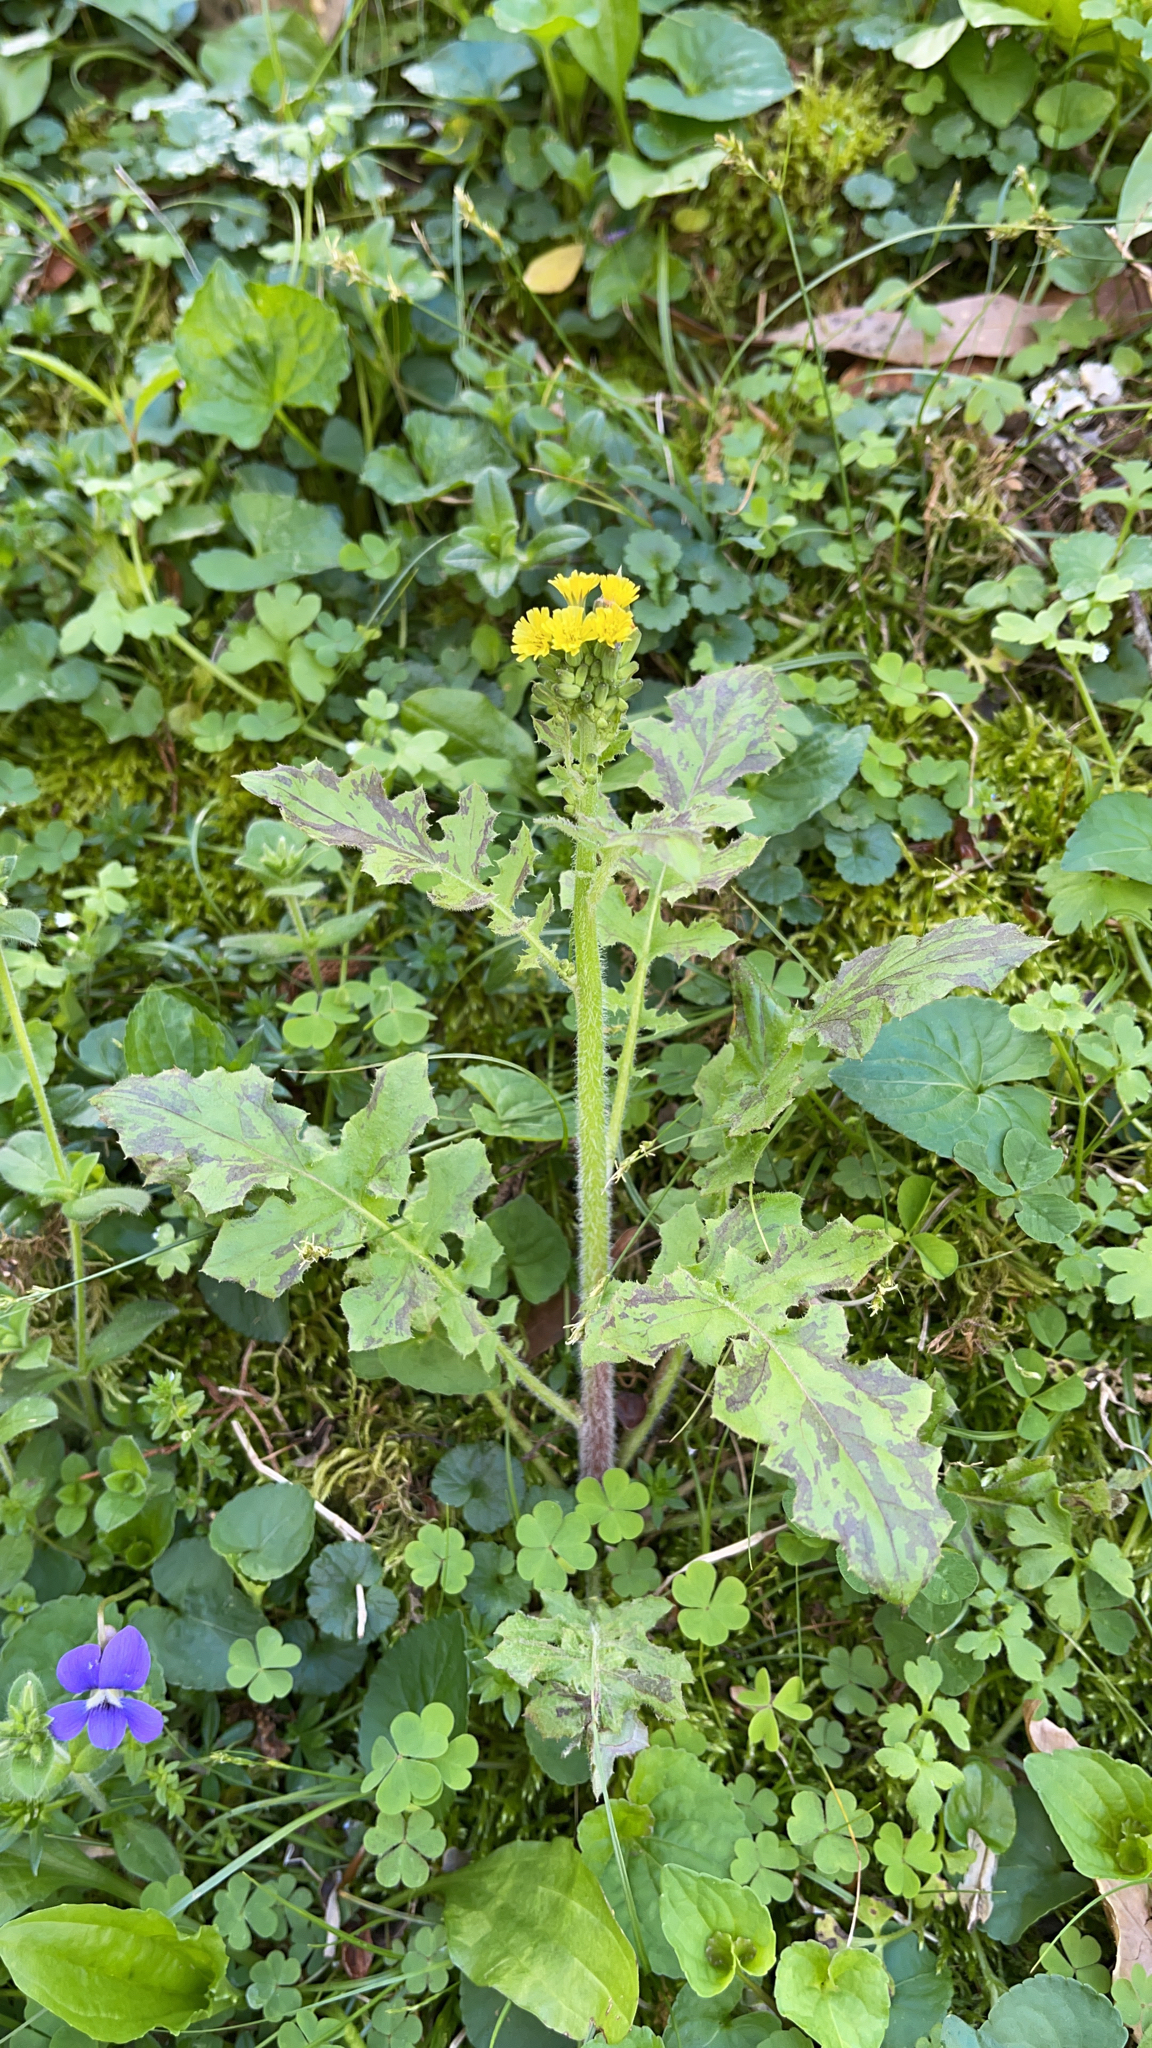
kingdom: Plantae
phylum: Tracheophyta
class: Magnoliopsida
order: Asterales
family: Asteraceae
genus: Youngia
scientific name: Youngia japonica
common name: Oriental false hawksbeard
